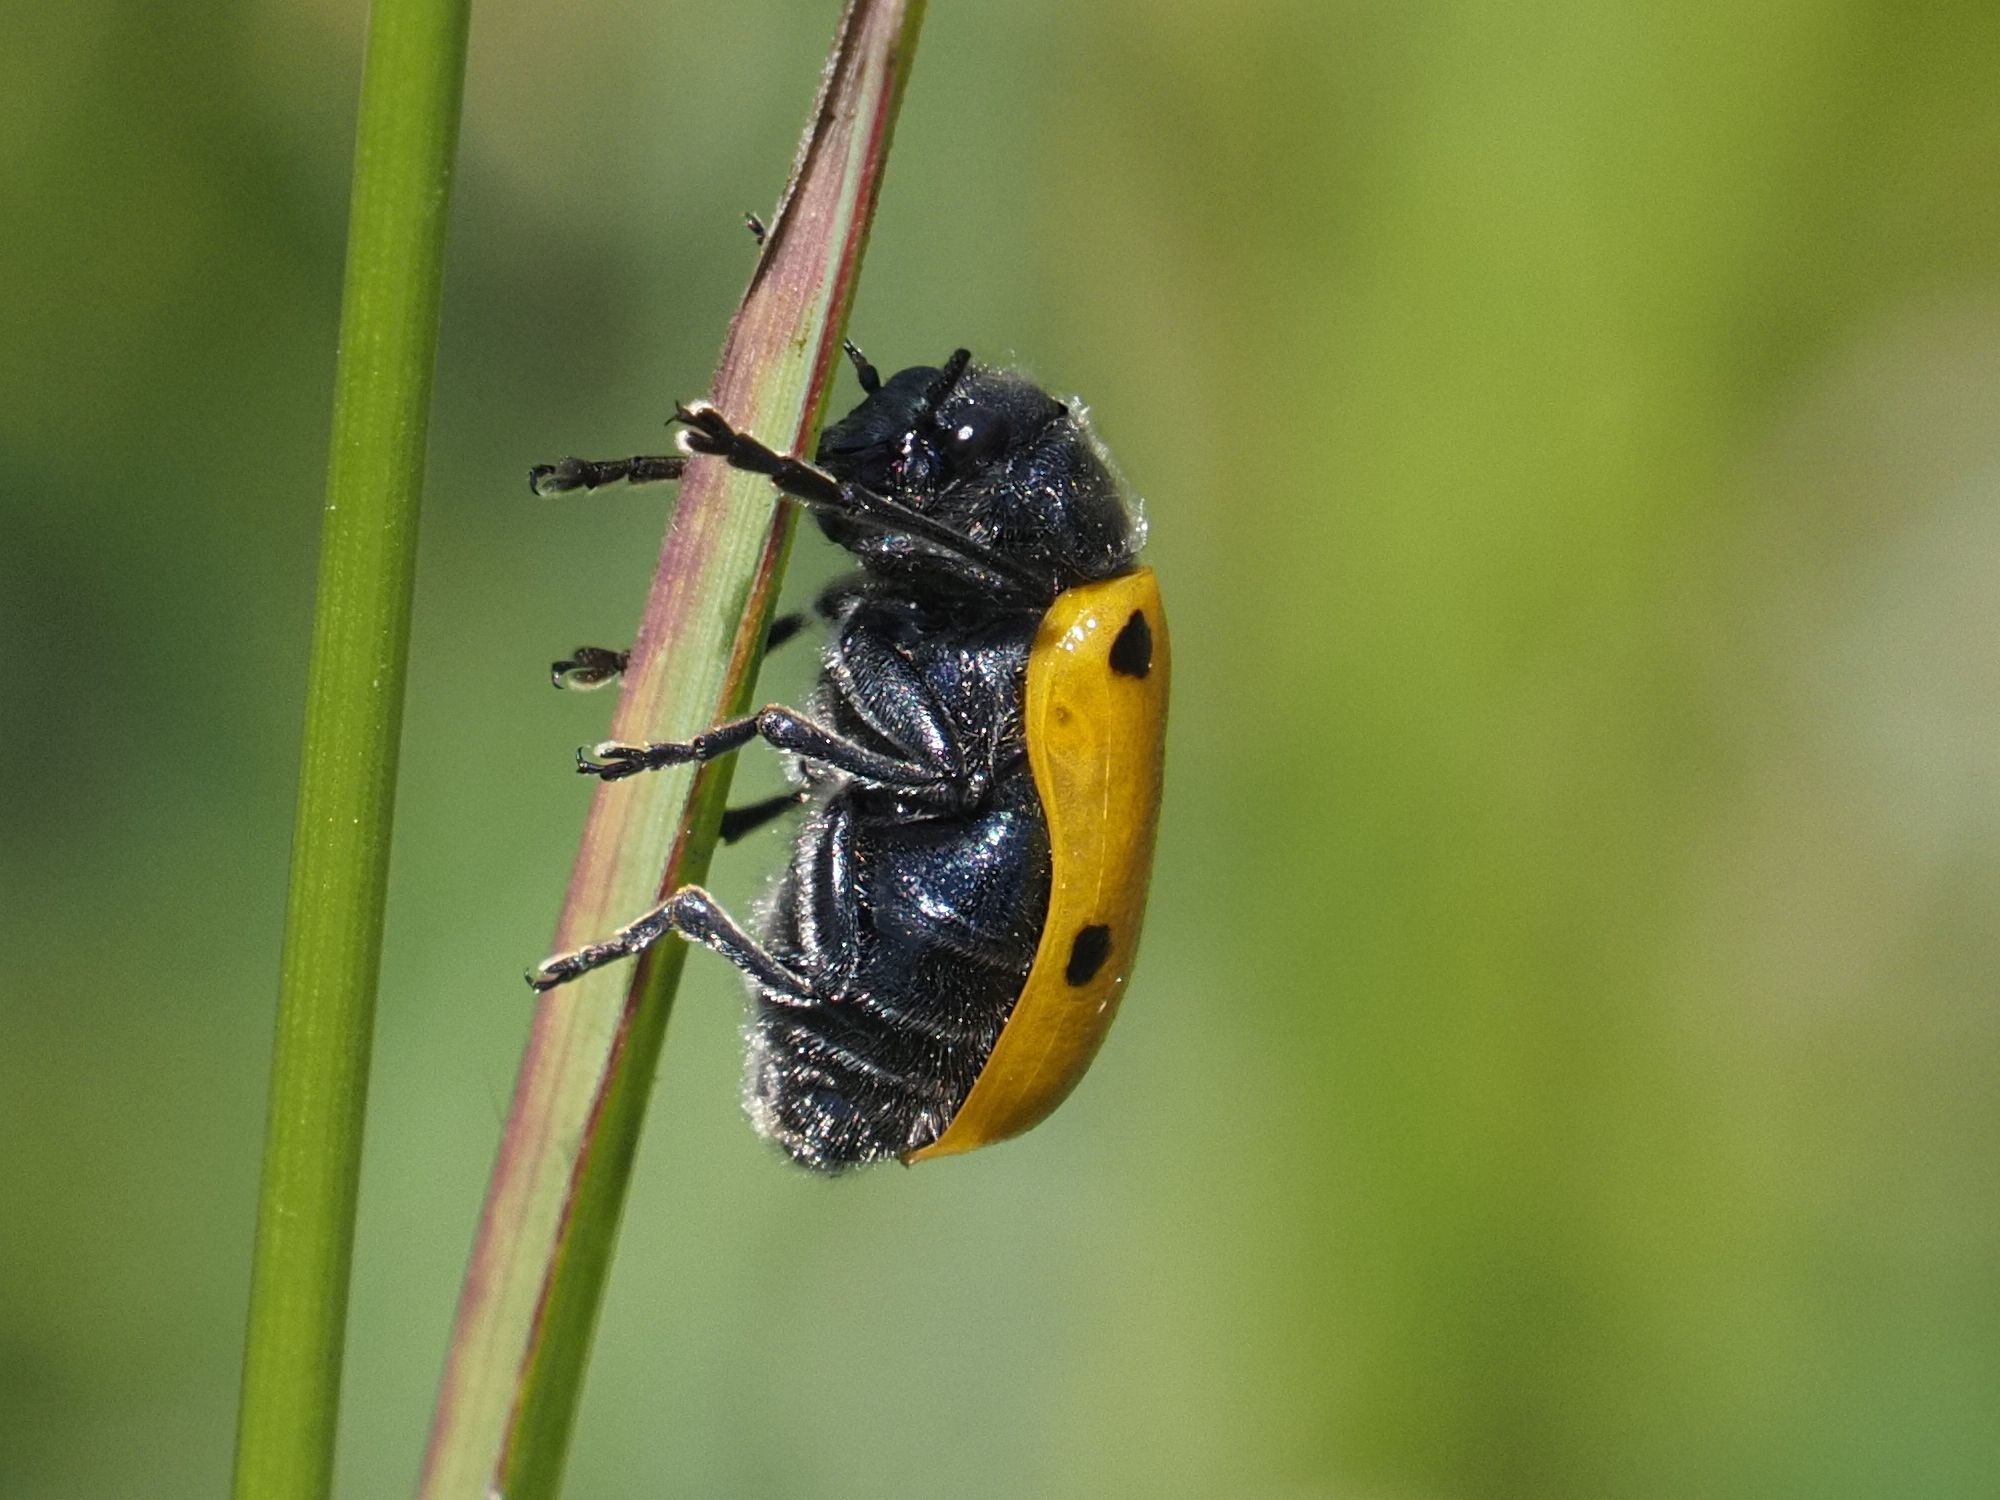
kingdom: Animalia
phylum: Arthropoda
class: Insecta
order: Coleoptera
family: Chrysomelidae
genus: Lachnaia
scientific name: Lachnaia sexpunctata
